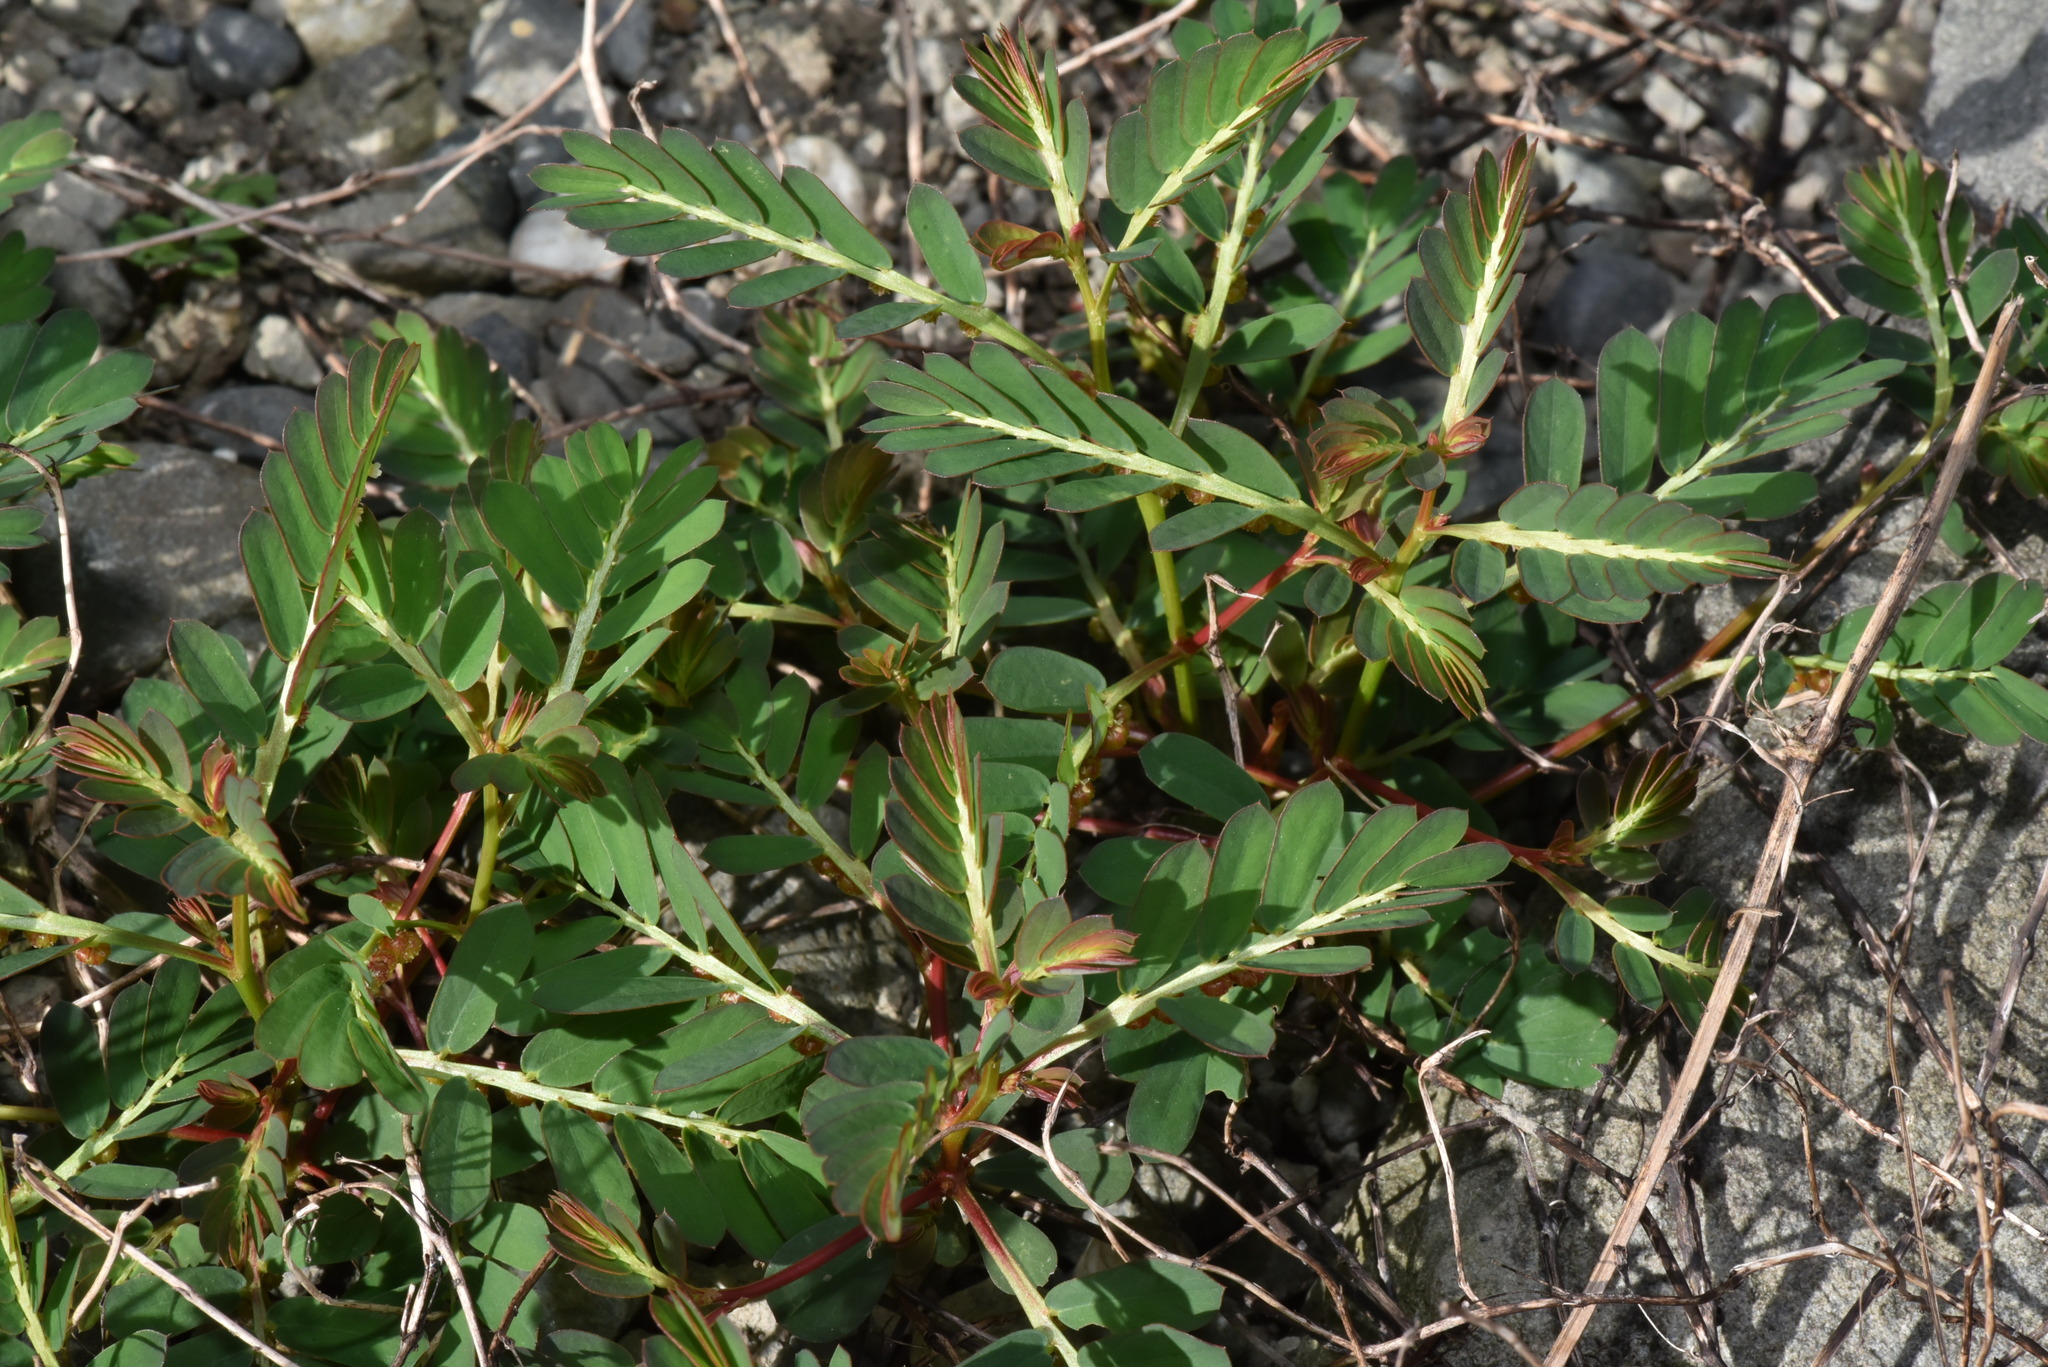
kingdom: Plantae
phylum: Tracheophyta
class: Magnoliopsida
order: Malpighiales
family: Phyllanthaceae
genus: Phyllanthus
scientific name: Phyllanthus urinaria
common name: Chamber bitter
